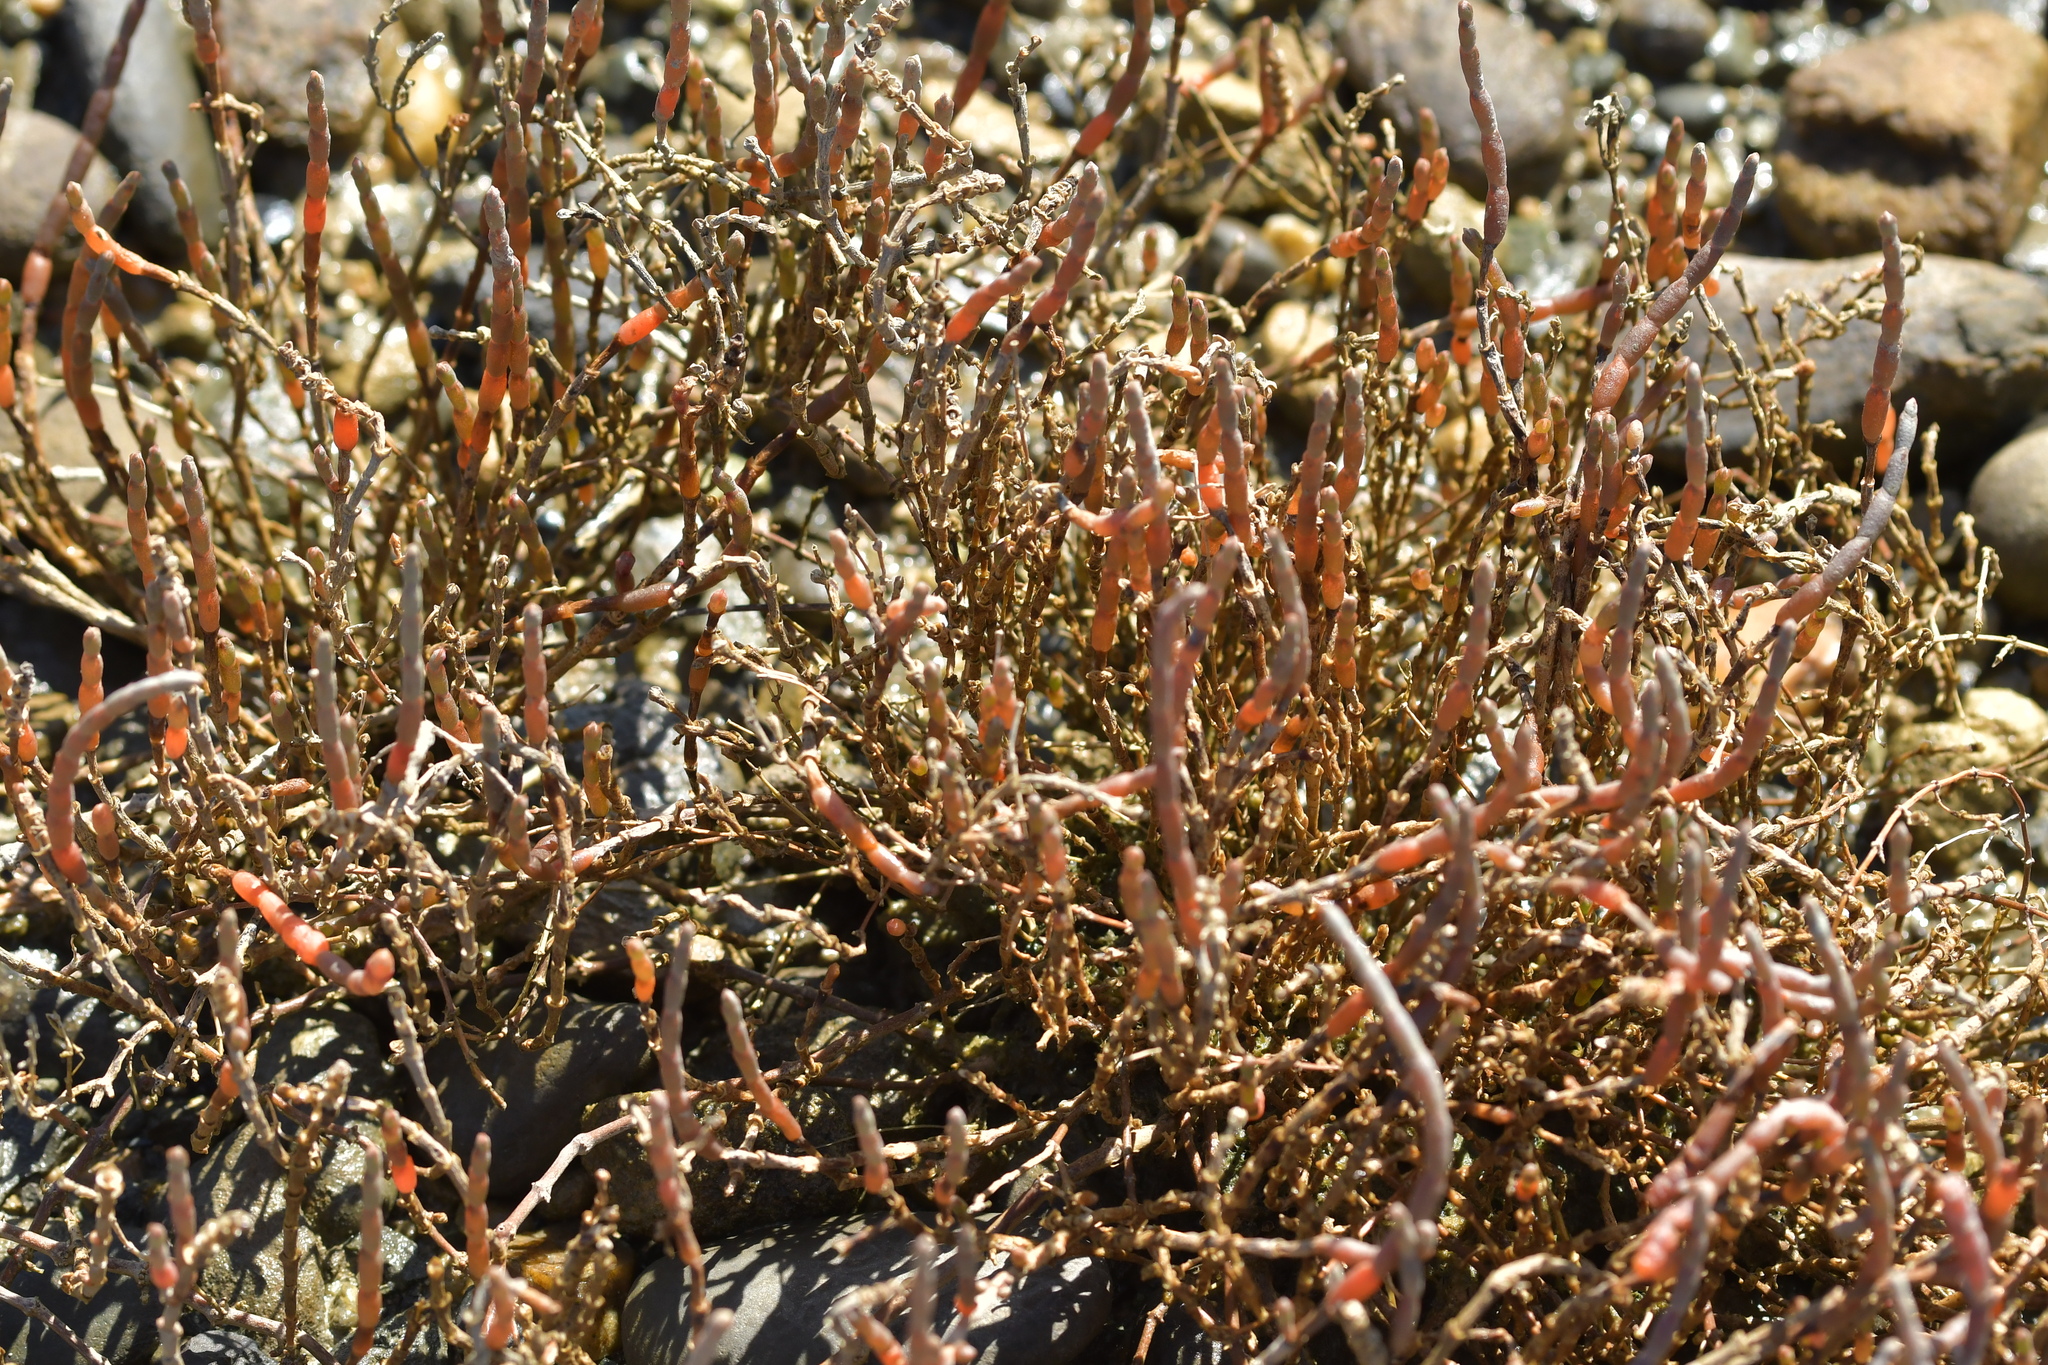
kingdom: Plantae
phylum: Tracheophyta
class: Magnoliopsida
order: Caryophyllales
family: Amaranthaceae
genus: Salicornia
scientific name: Salicornia quinqueflora
